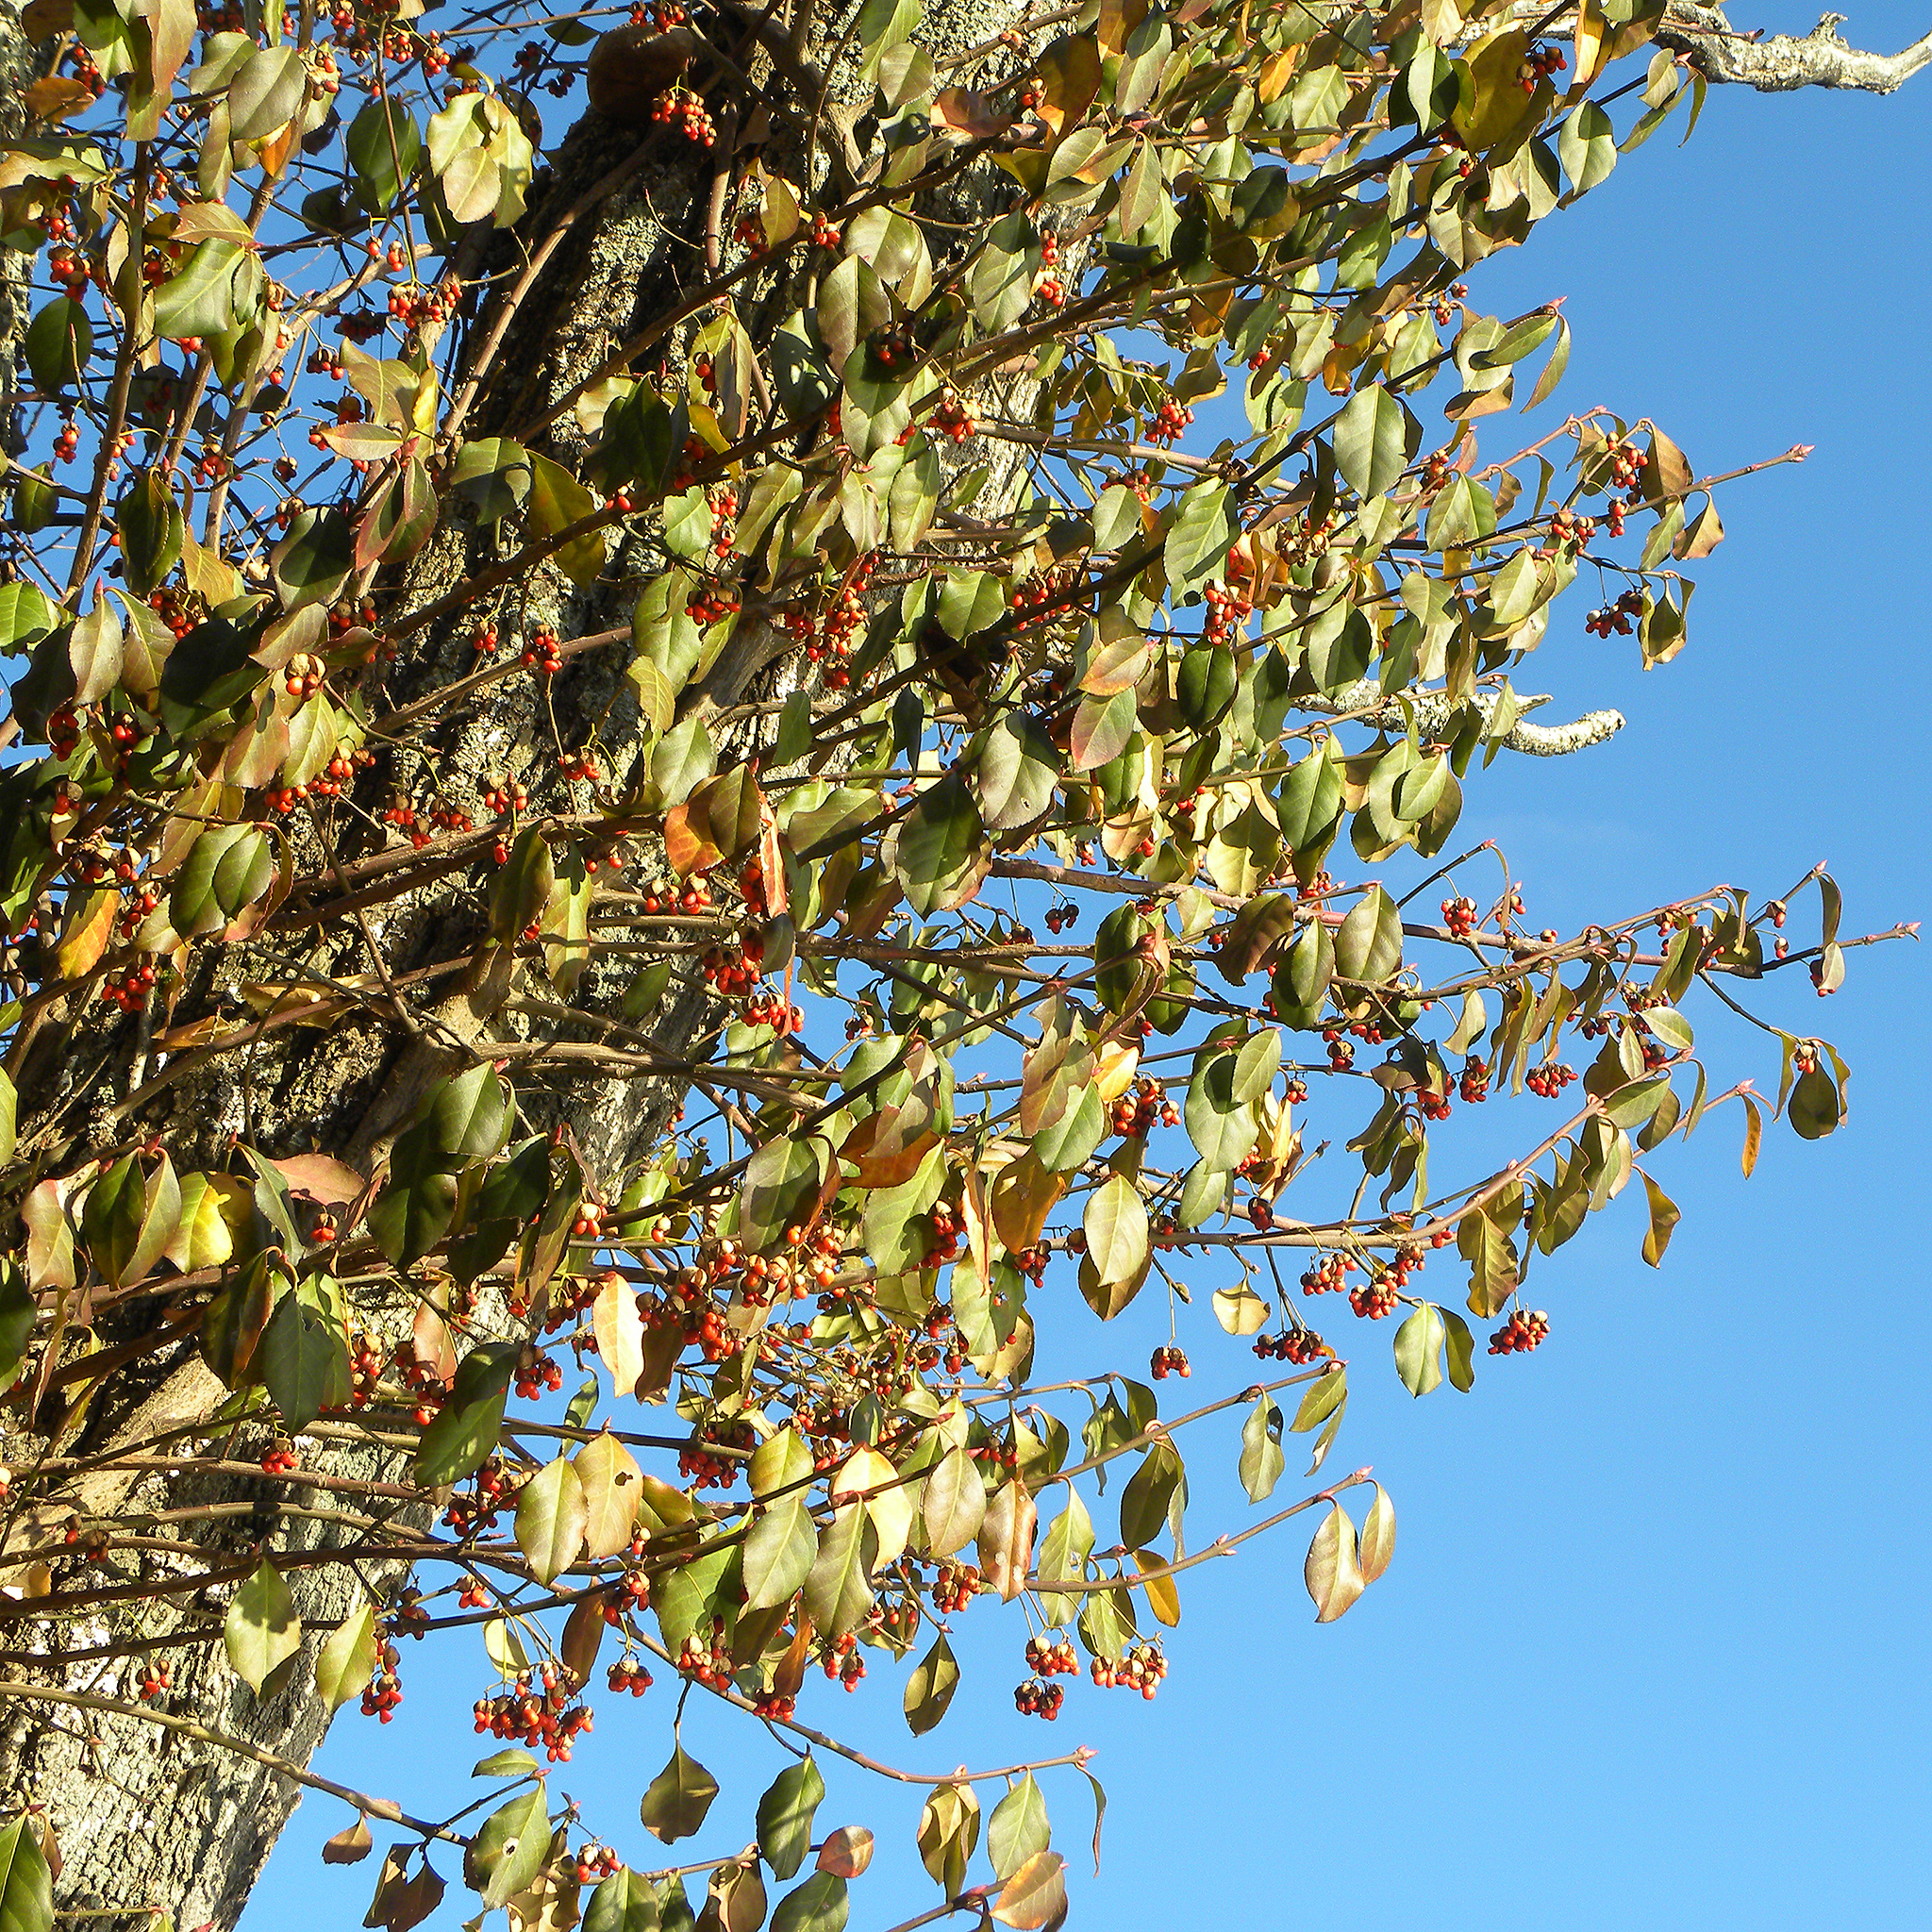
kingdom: Plantae
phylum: Tracheophyta
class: Magnoliopsida
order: Celastrales
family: Celastraceae
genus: Euonymus
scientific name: Euonymus fortunei
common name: Climbing euonymus
